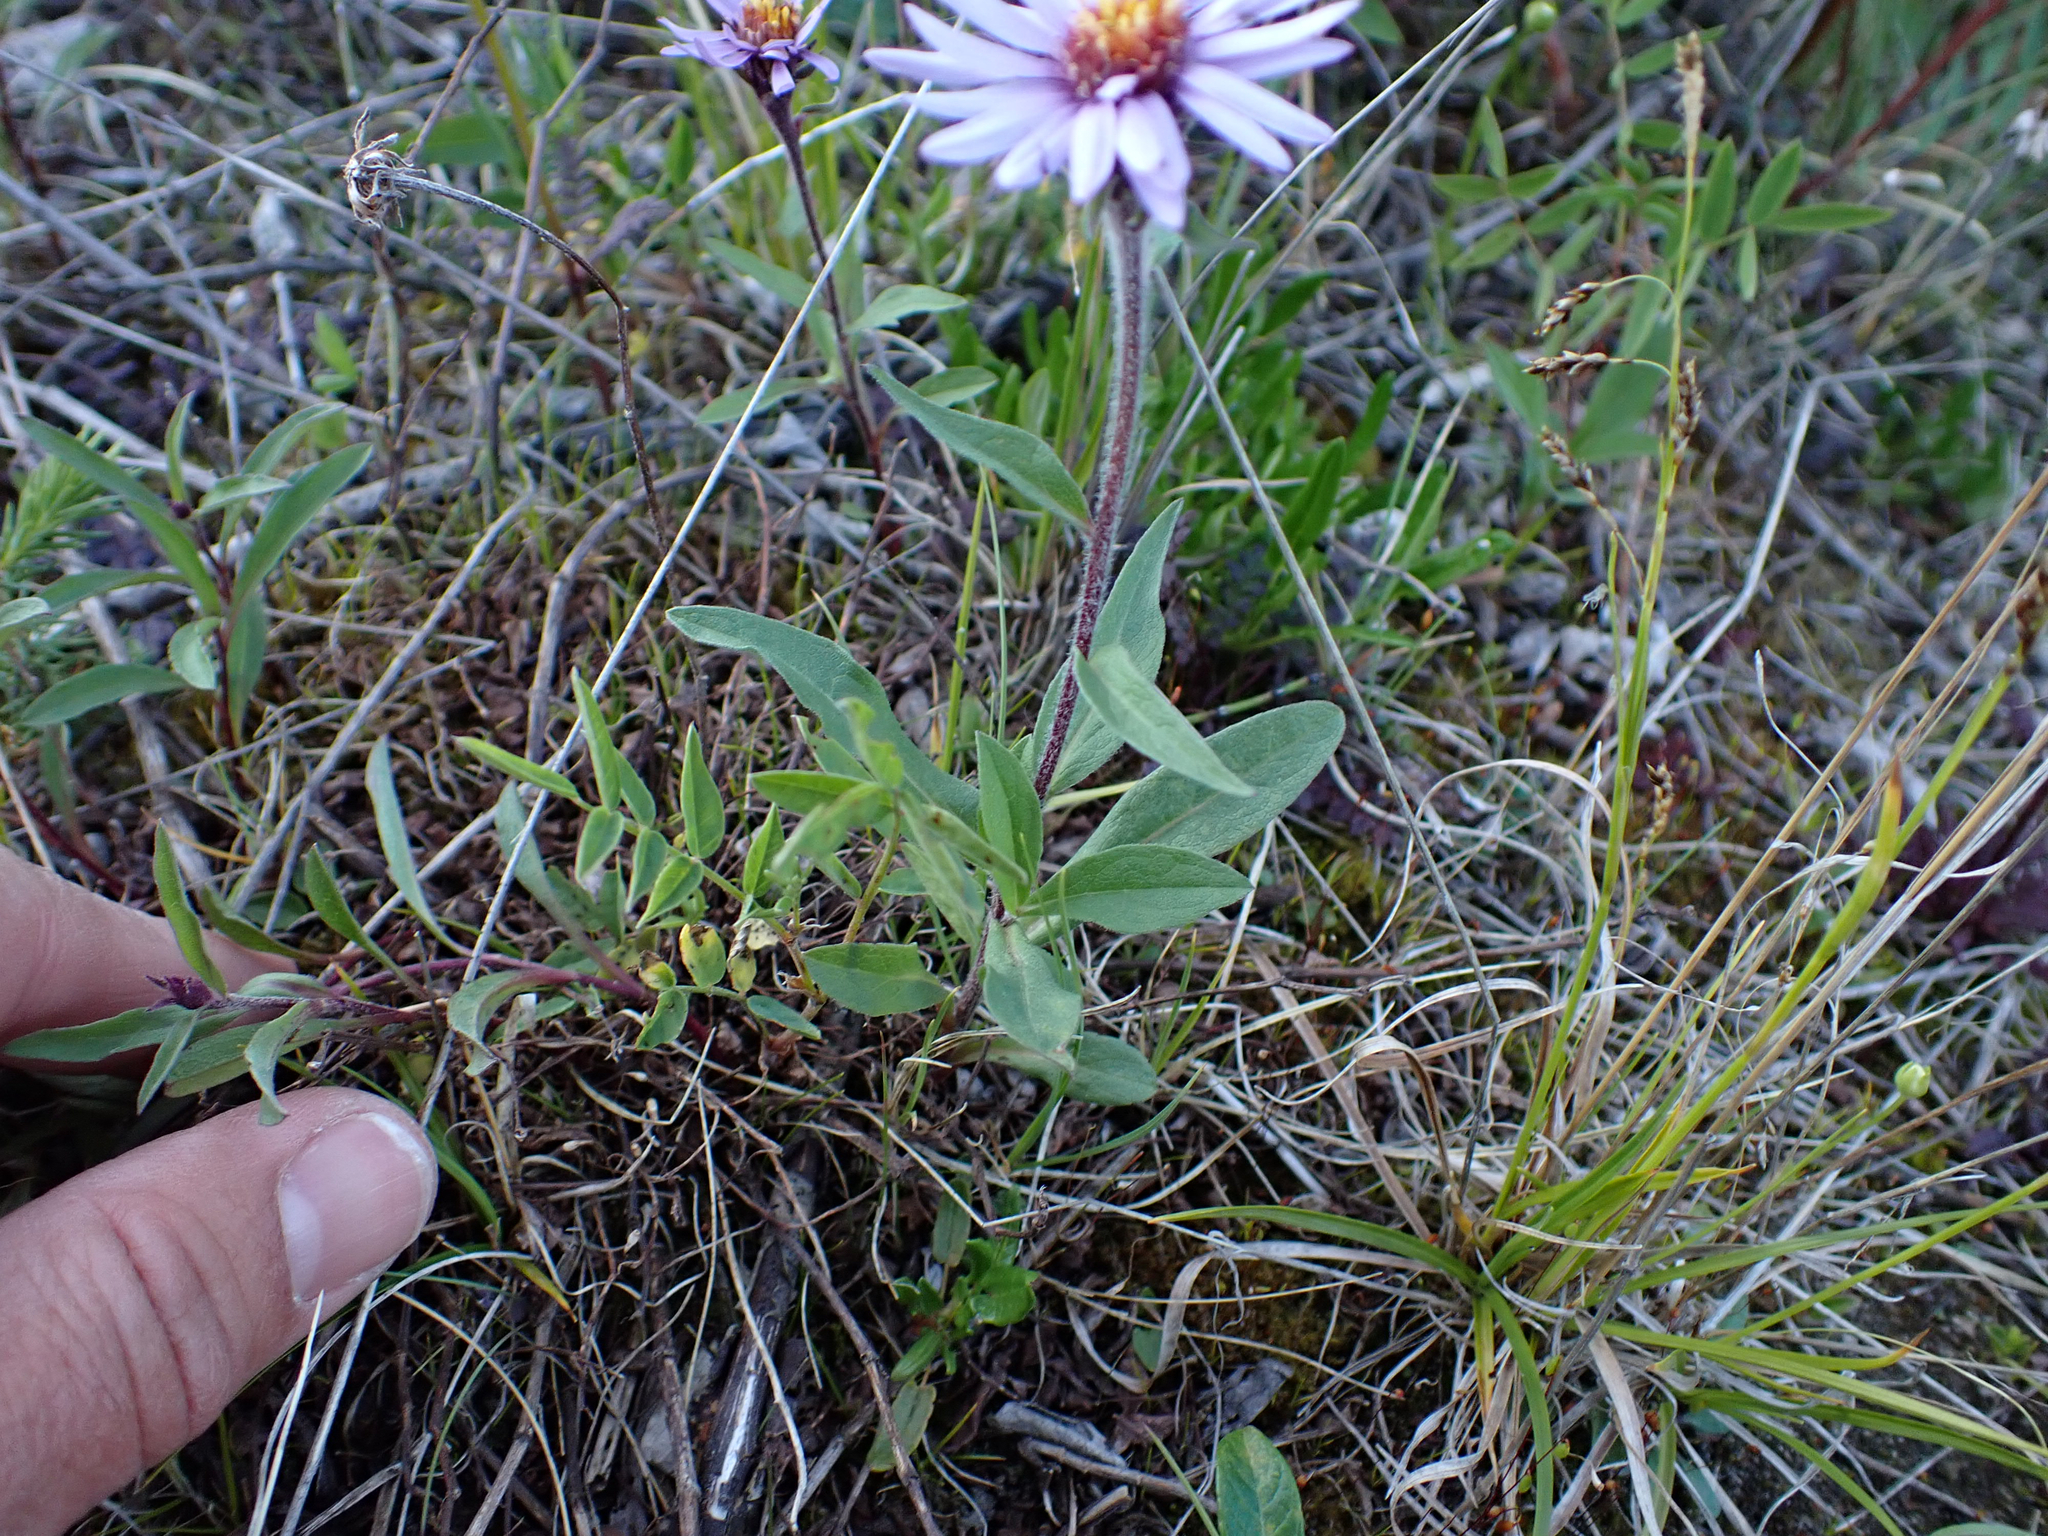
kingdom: Plantae
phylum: Tracheophyta
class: Magnoliopsida
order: Asterales
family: Asteraceae
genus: Eurybia
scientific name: Eurybia sibirica
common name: Arctic aster
